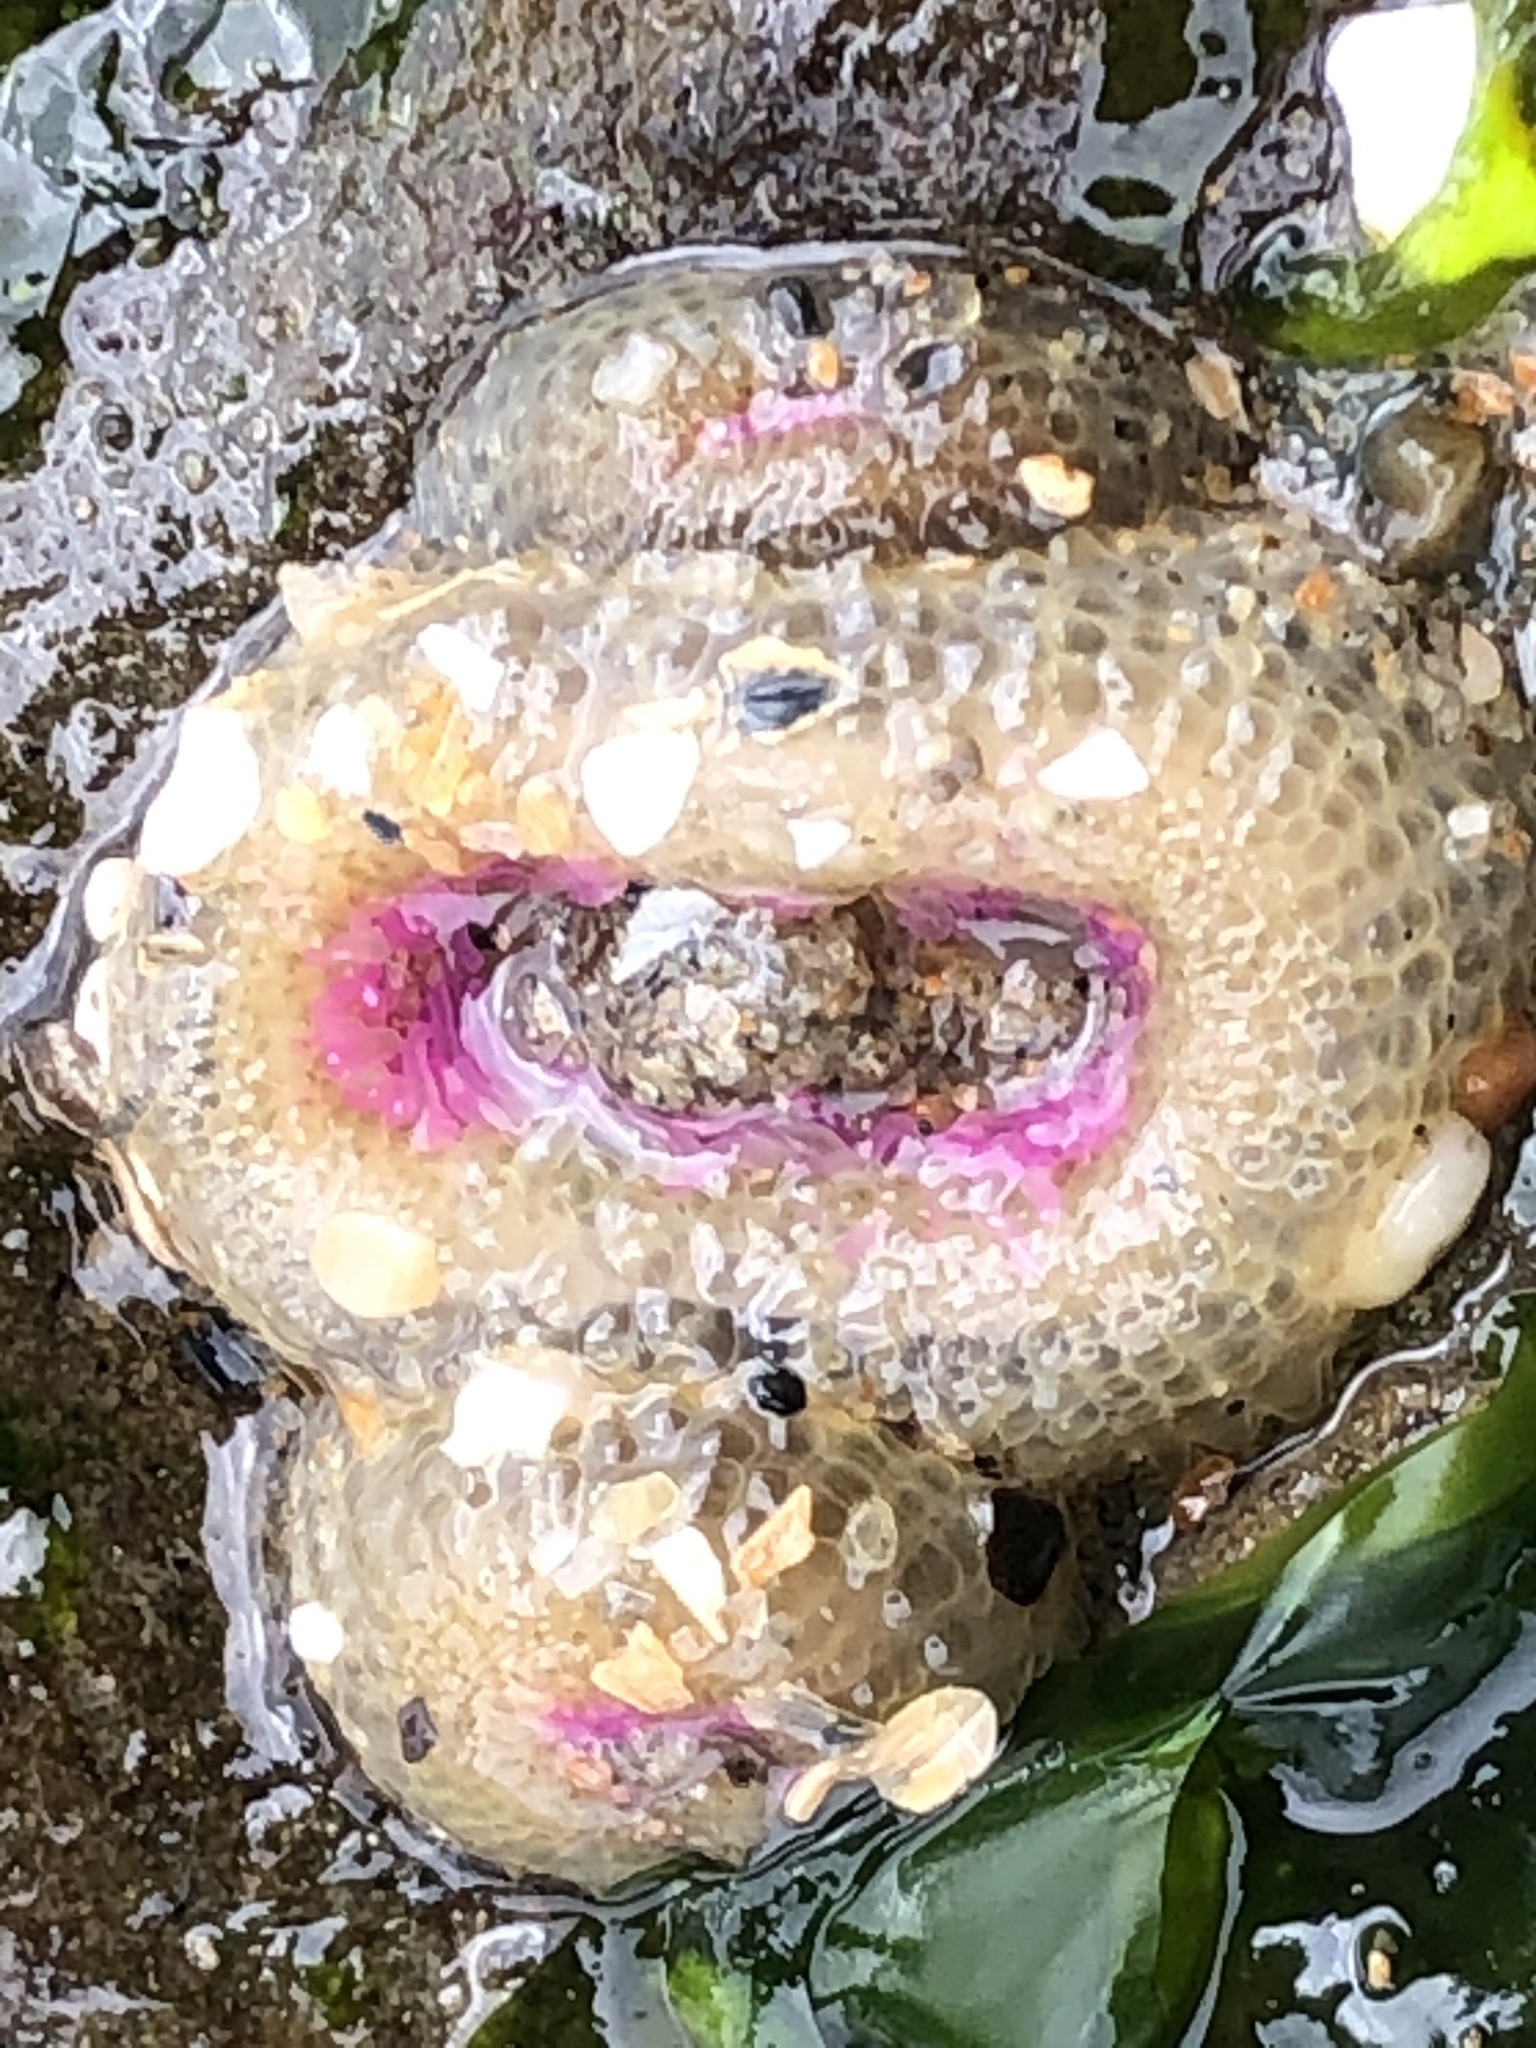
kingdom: Animalia
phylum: Cnidaria
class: Anthozoa
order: Actiniaria
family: Actiniidae
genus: Anthopleura
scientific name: Anthopleura elegantissima
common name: Clonal anemone
